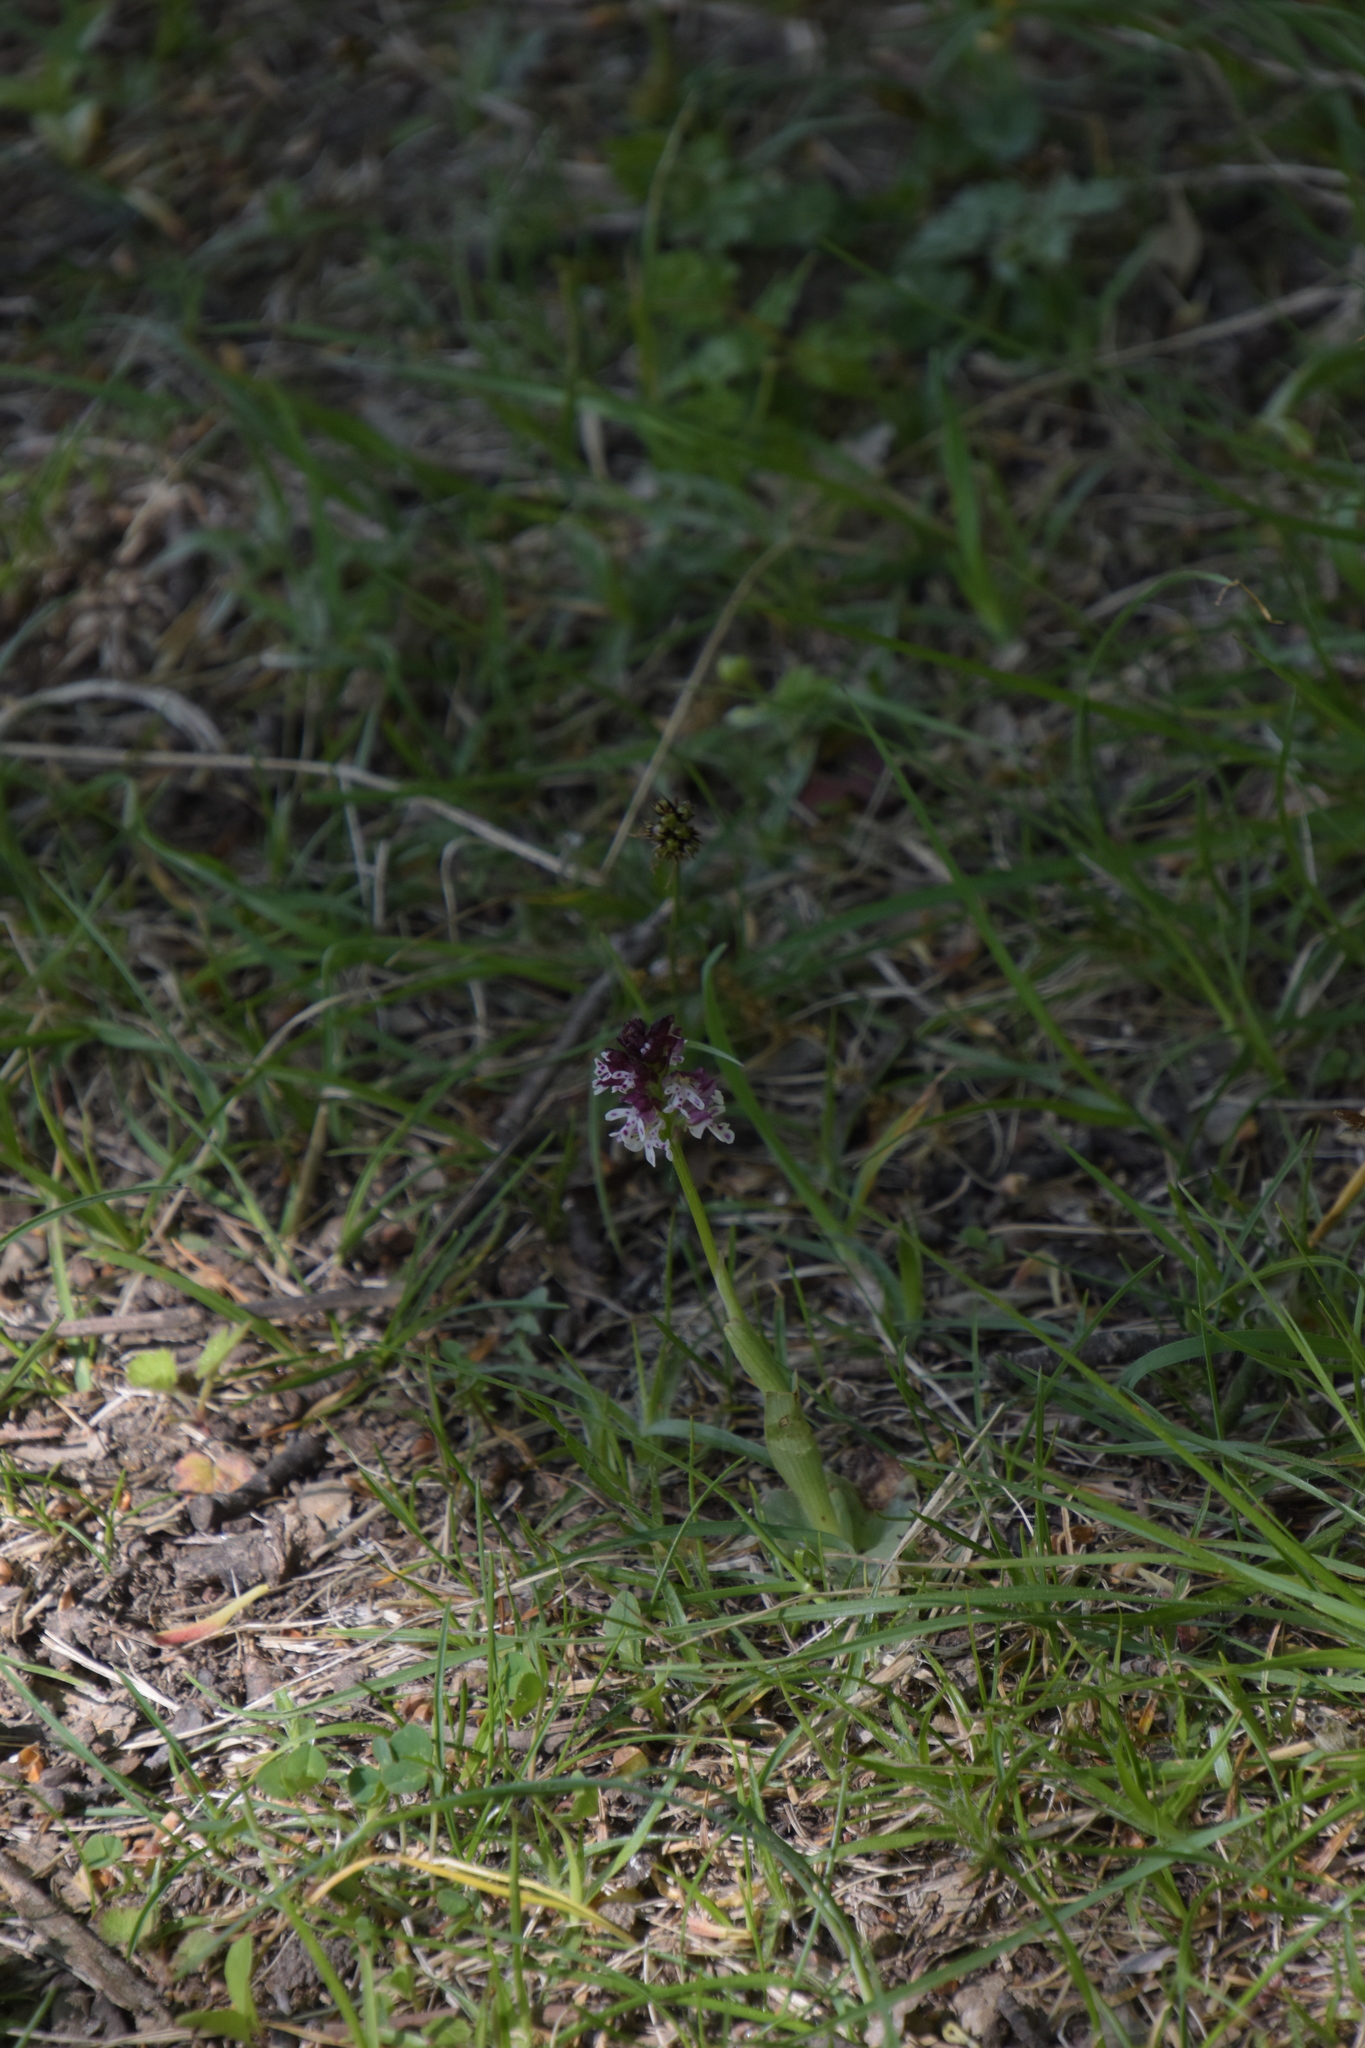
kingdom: Plantae
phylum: Tracheophyta
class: Liliopsida
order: Asparagales
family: Orchidaceae
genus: Neotinea
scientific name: Neotinea ustulata
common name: Burnt orchid
